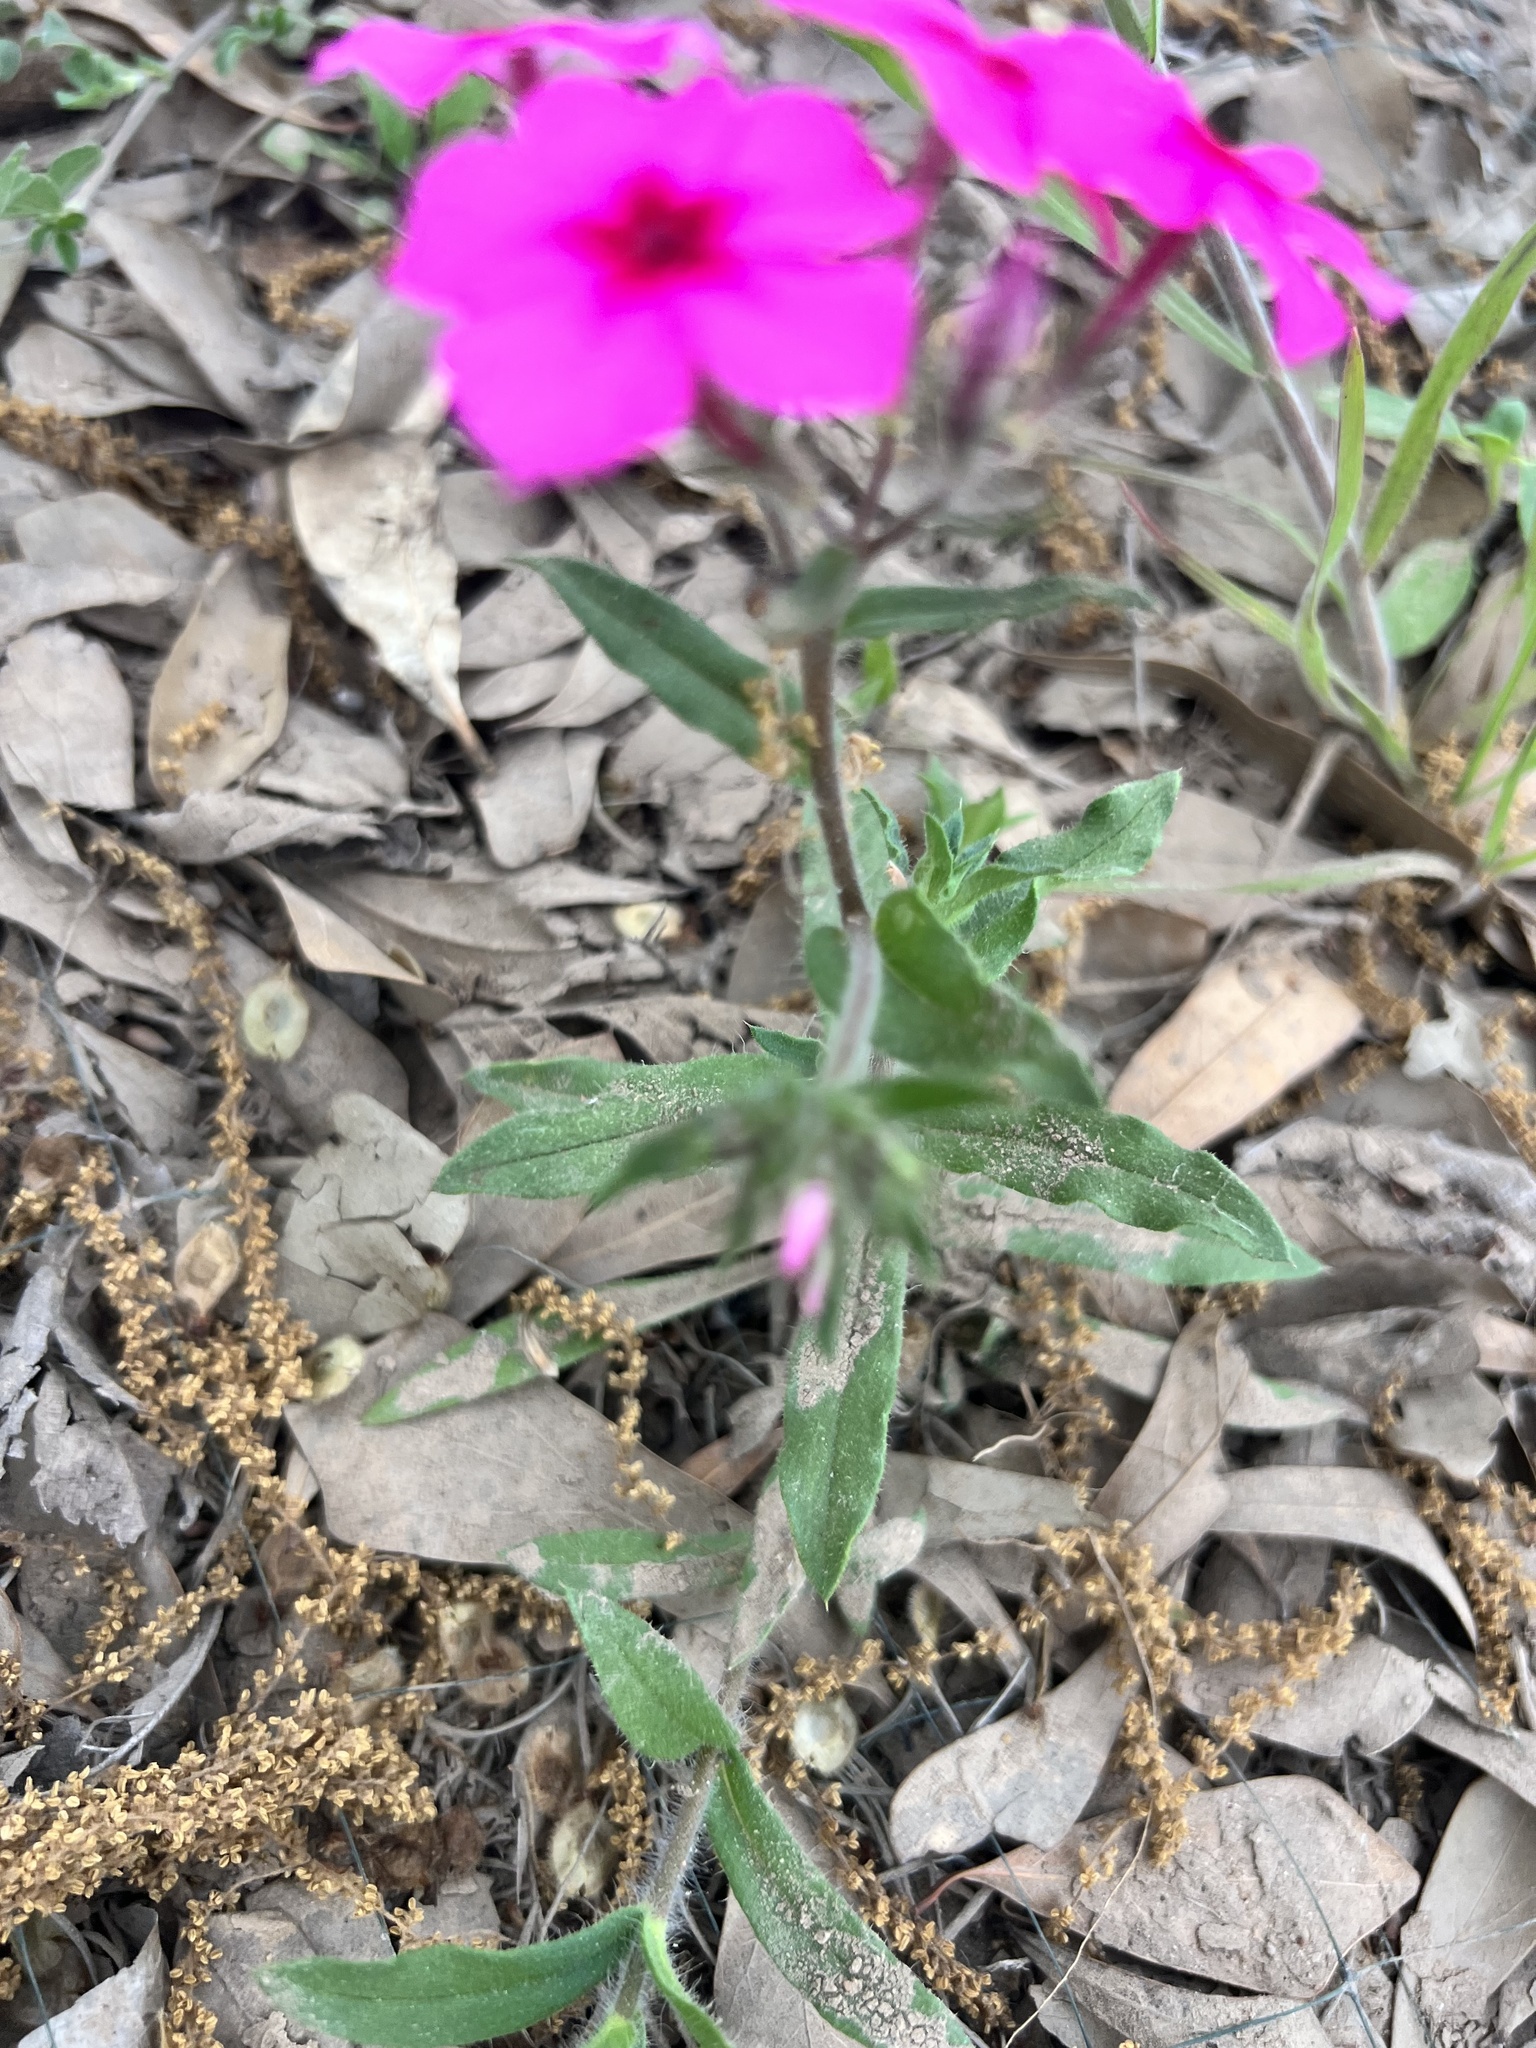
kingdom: Plantae
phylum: Tracheophyta
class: Magnoliopsida
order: Ericales
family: Polemoniaceae
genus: Phlox
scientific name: Phlox drummondii
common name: Drummond's phlox
